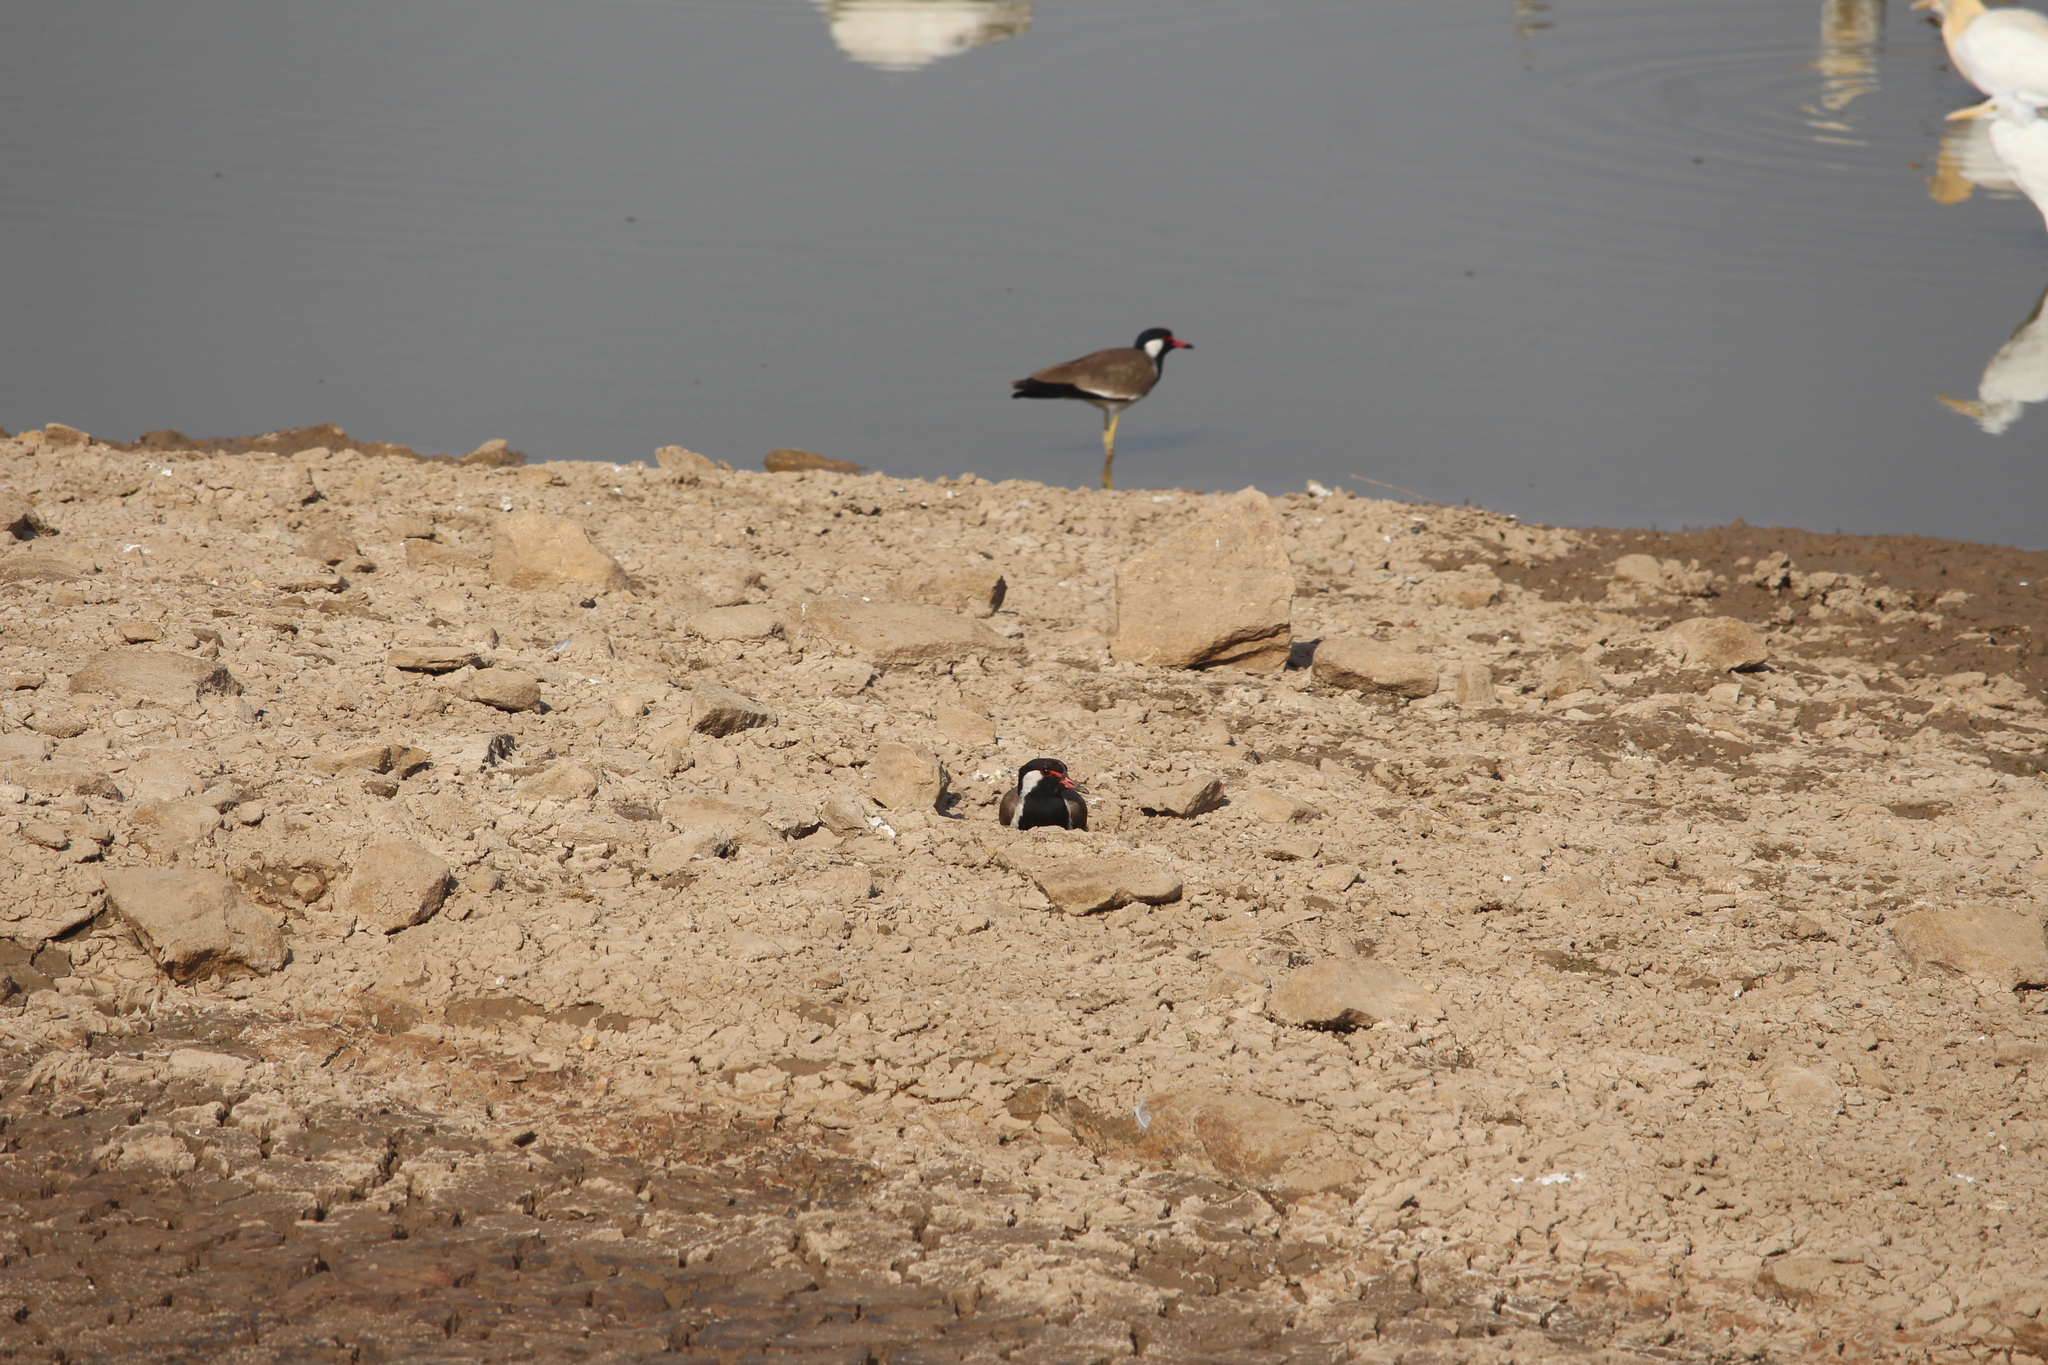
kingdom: Animalia
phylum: Chordata
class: Aves
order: Charadriiformes
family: Charadriidae
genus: Vanellus
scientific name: Vanellus indicus
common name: Red-wattled lapwing
